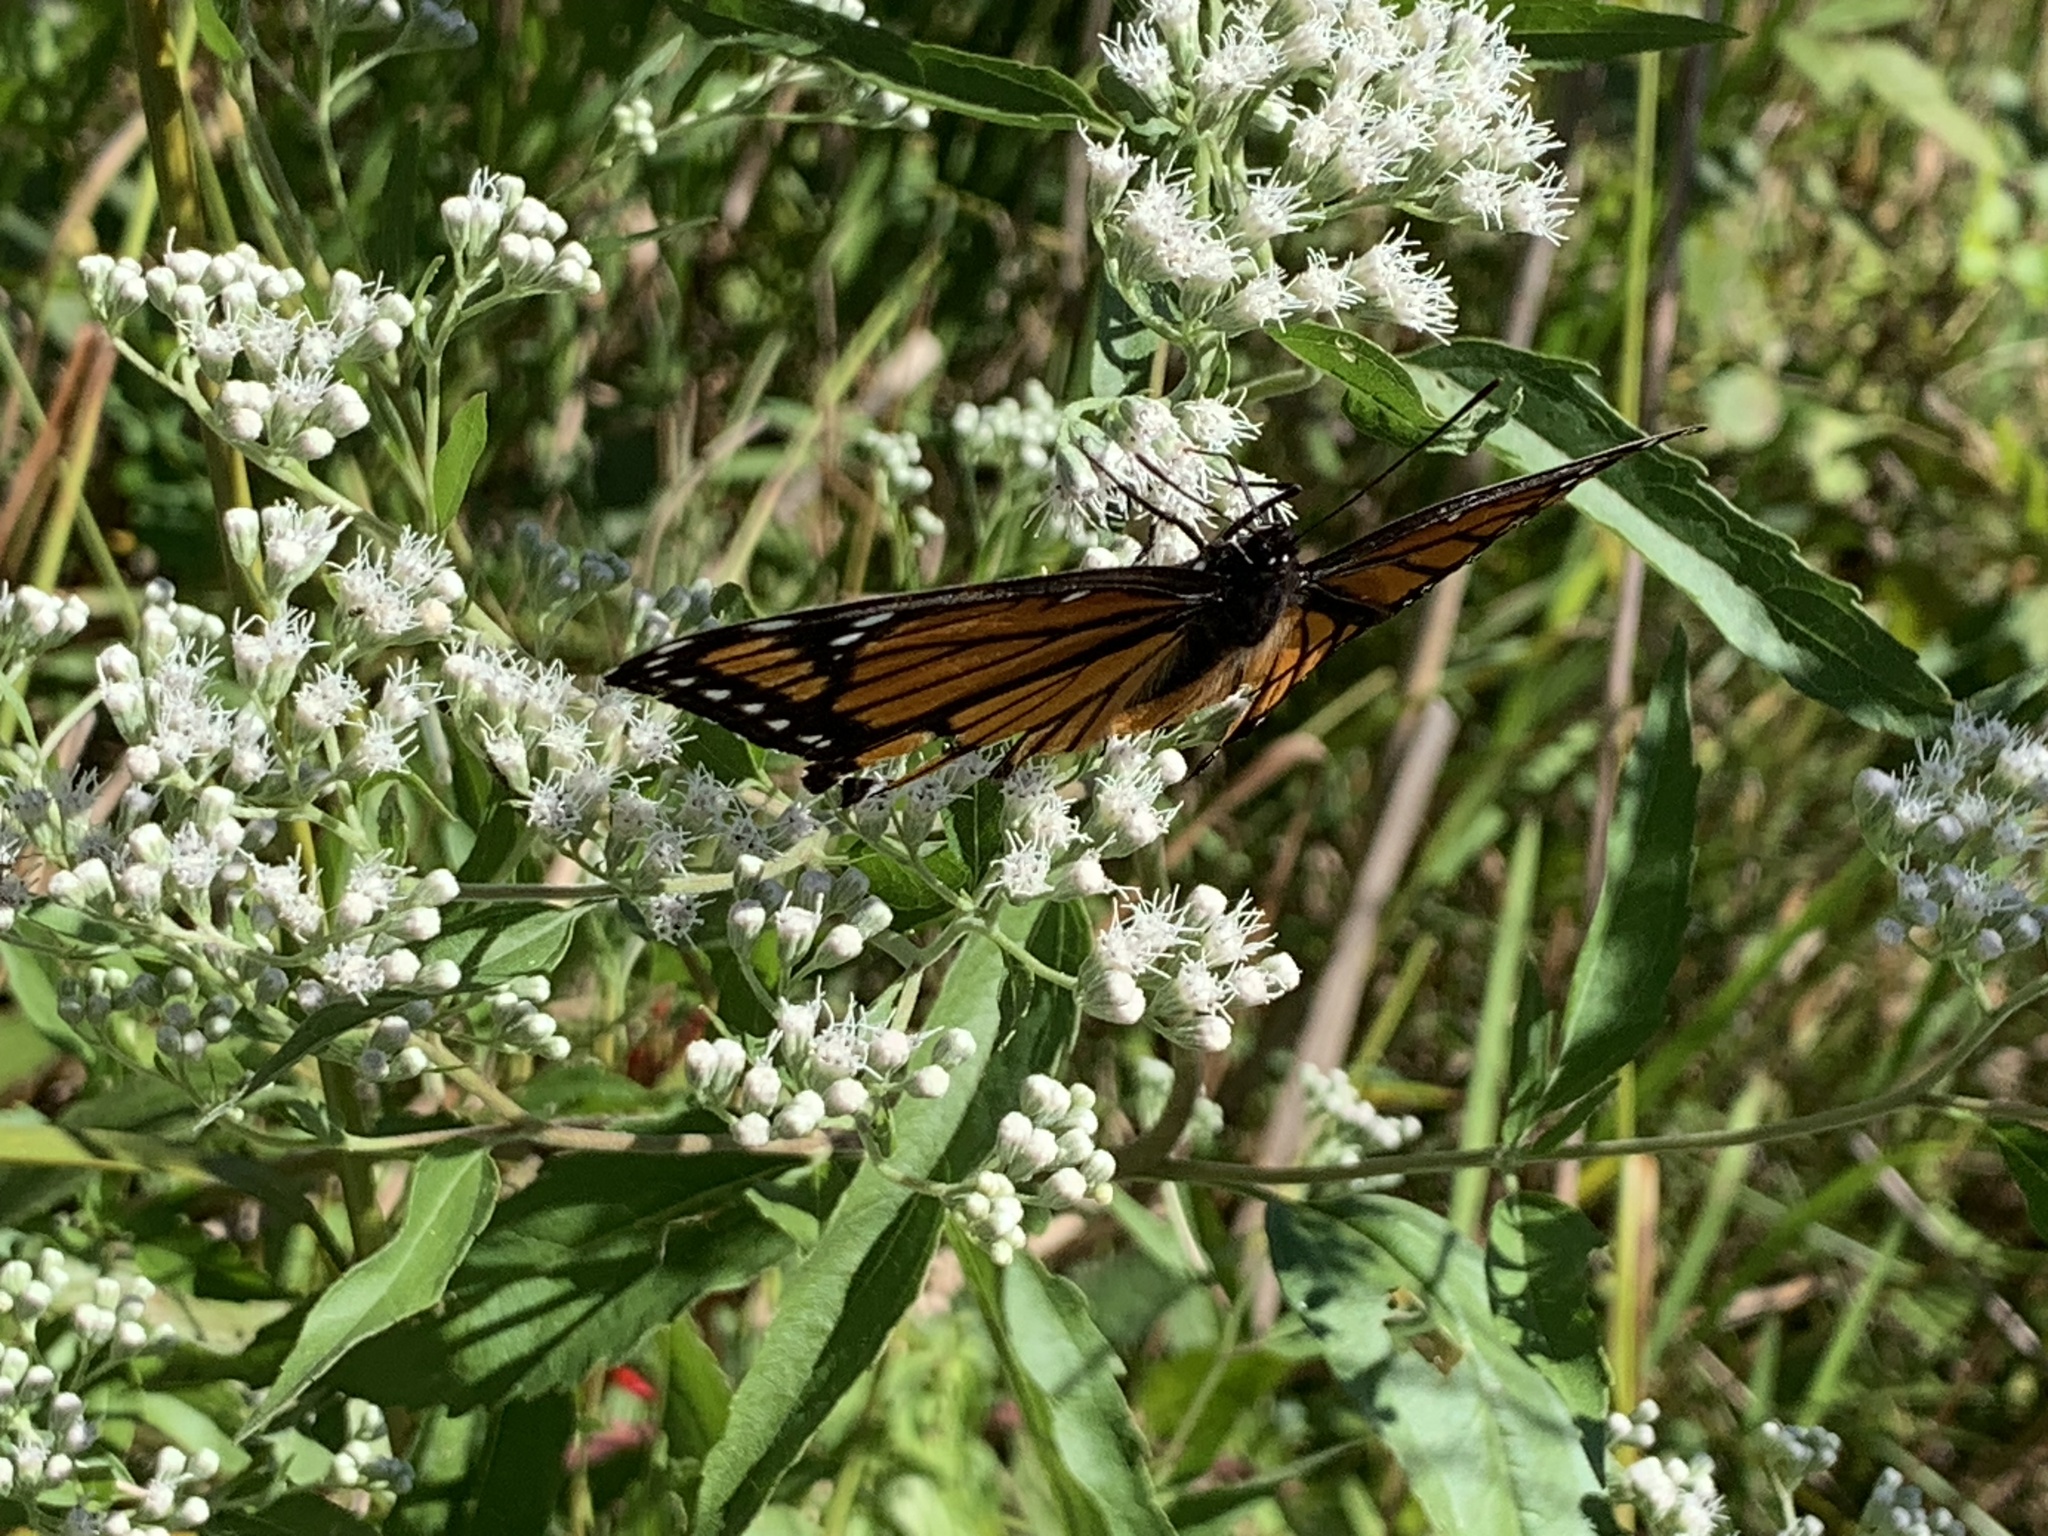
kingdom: Animalia
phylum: Arthropoda
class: Insecta
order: Lepidoptera
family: Nymphalidae
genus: Limenitis
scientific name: Limenitis archippus
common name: Viceroy
